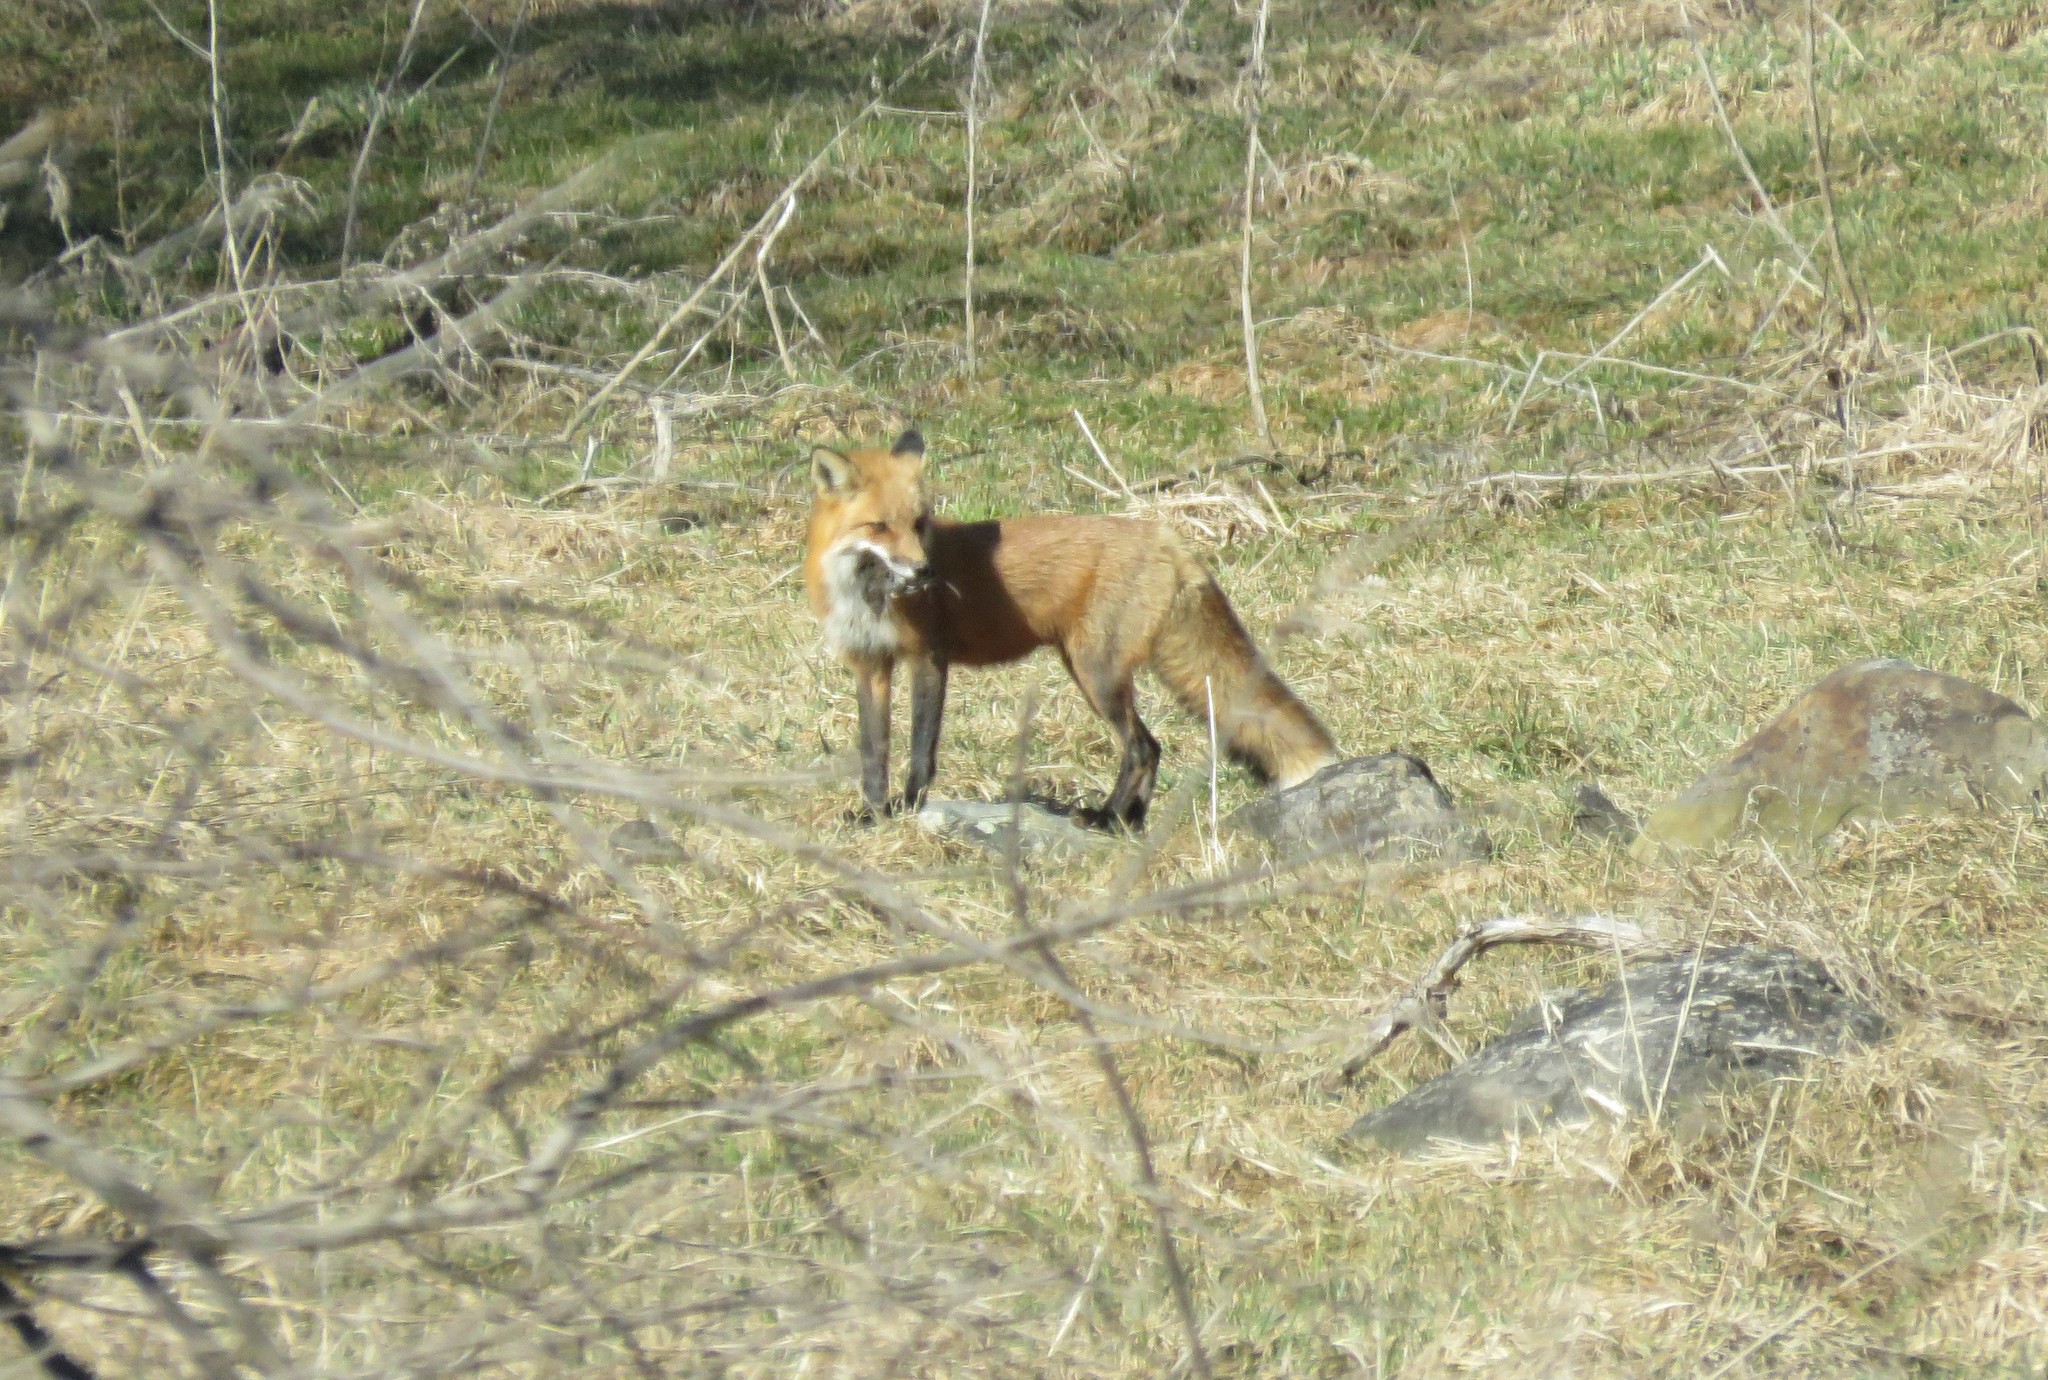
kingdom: Animalia
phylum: Chordata
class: Mammalia
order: Carnivora
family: Canidae
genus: Vulpes
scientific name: Vulpes vulpes
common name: Red fox
